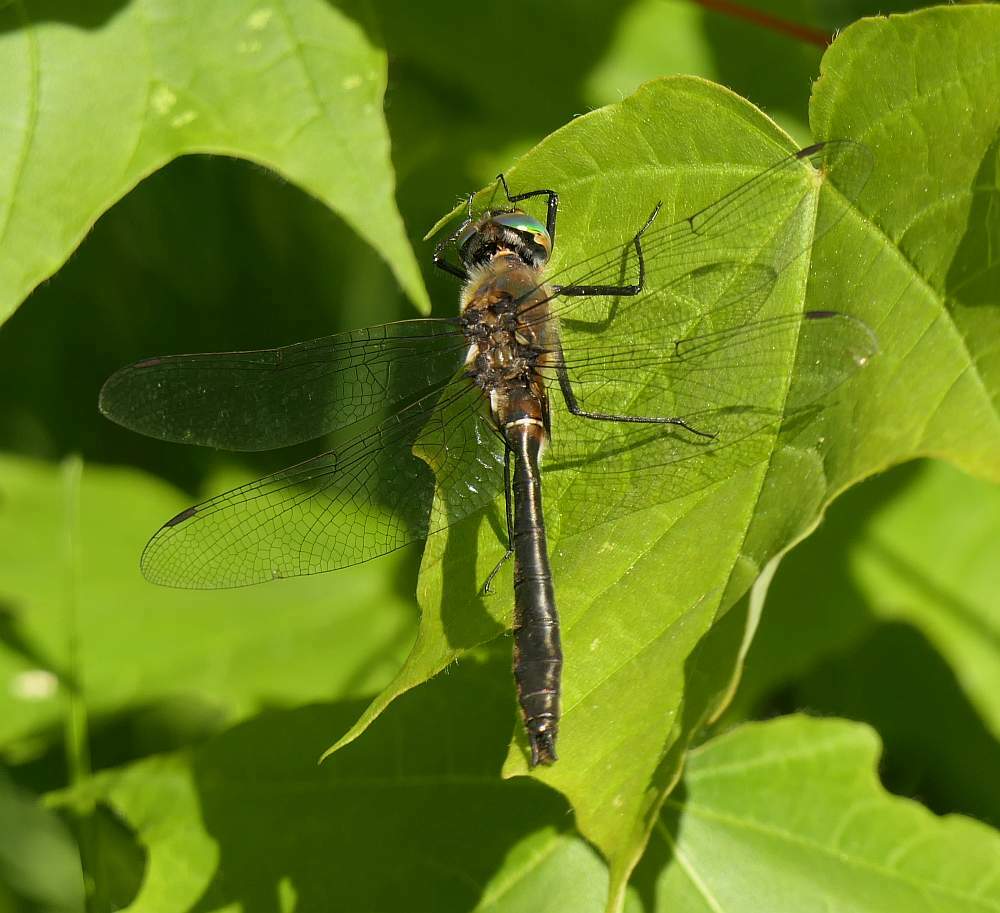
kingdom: Animalia
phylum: Arthropoda
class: Insecta
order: Odonata
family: Corduliidae
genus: Cordulia
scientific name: Cordulia shurtleffii
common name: American emerald
